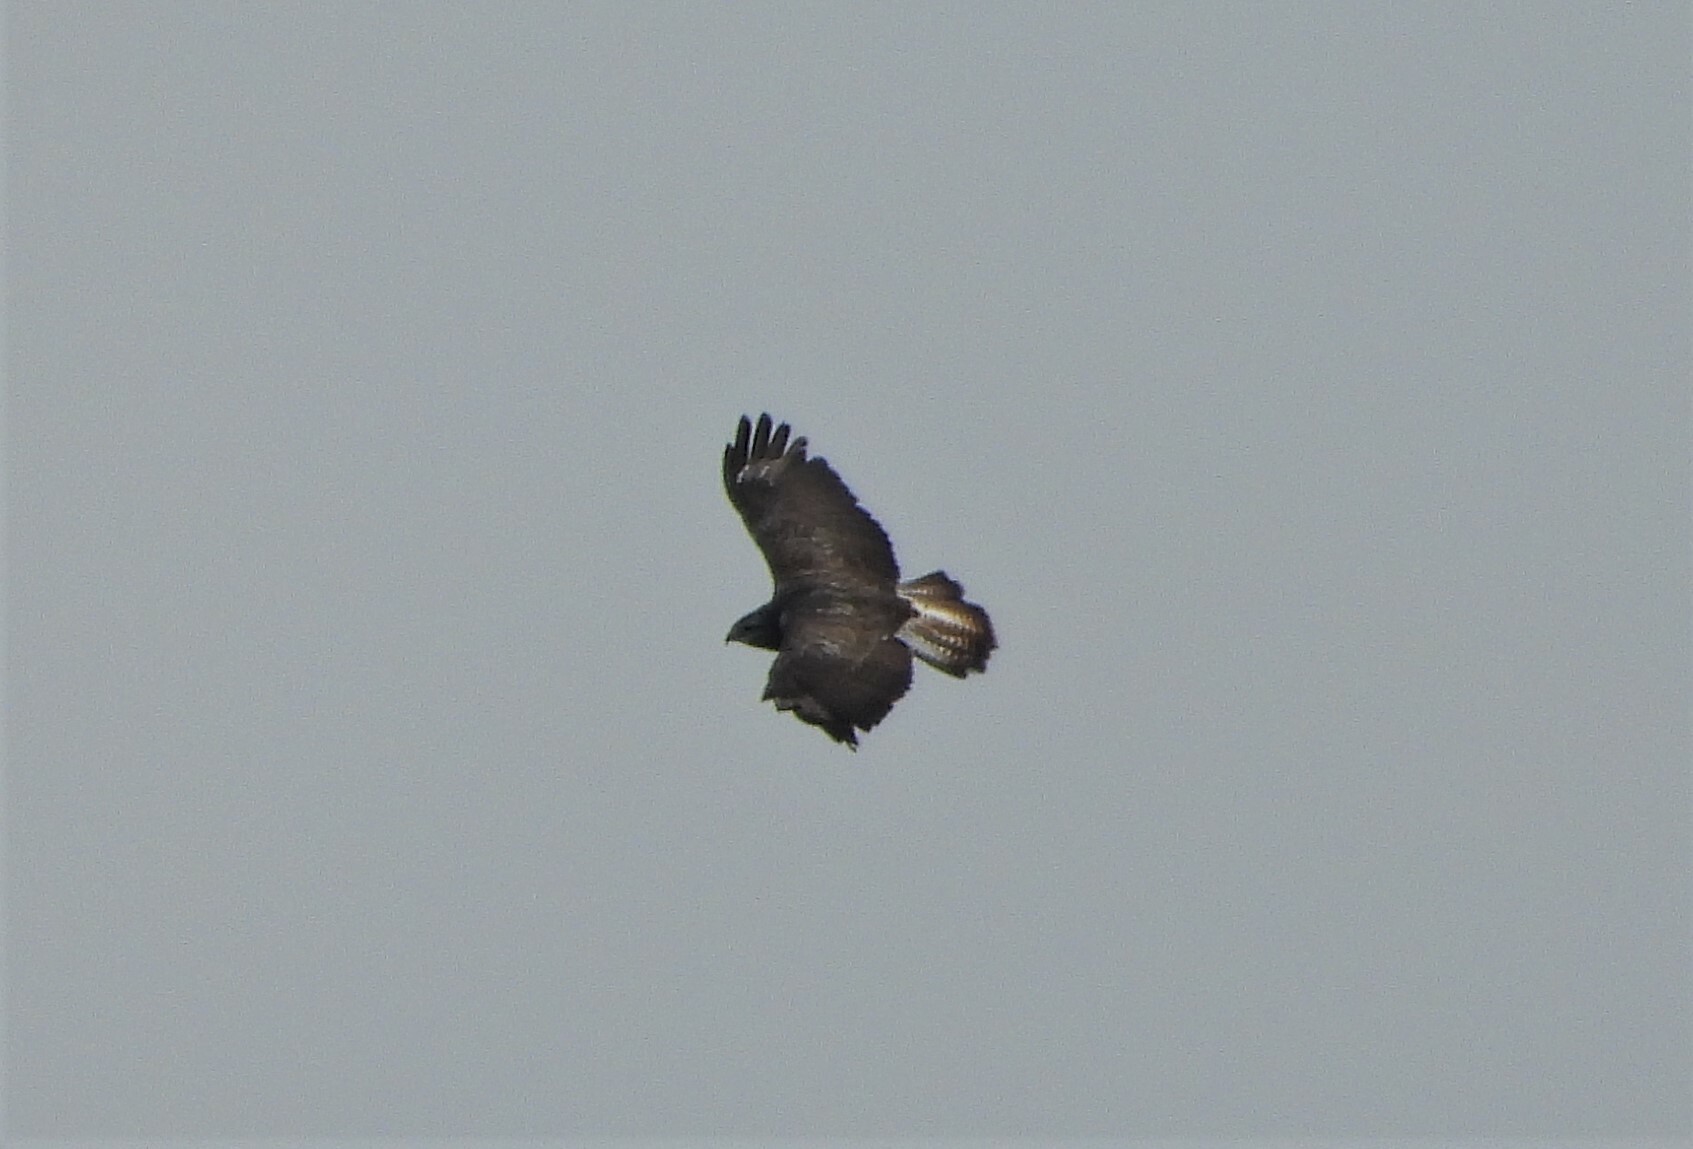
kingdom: Animalia
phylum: Chordata
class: Aves
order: Accipitriformes
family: Accipitridae
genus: Buteo
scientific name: Buteo buteo
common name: Common buzzard
